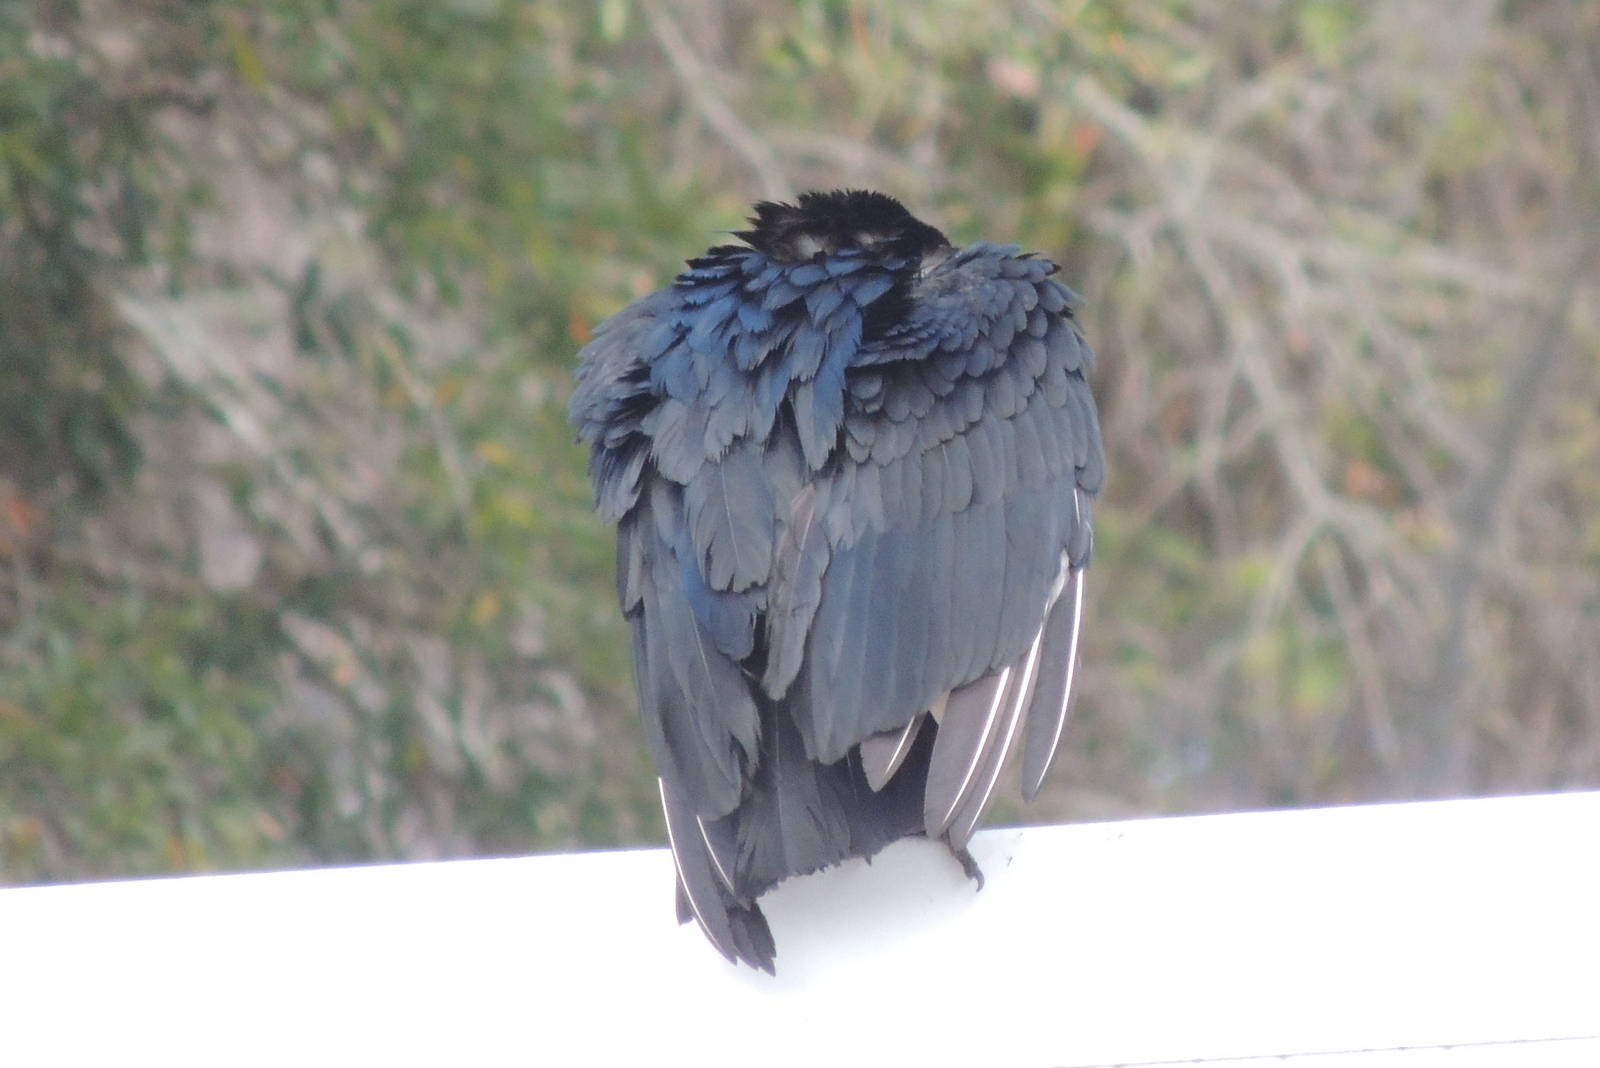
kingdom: Animalia
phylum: Chordata
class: Aves
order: Accipitriformes
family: Cathartidae
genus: Coragyps
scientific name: Coragyps atratus
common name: Black vulture
